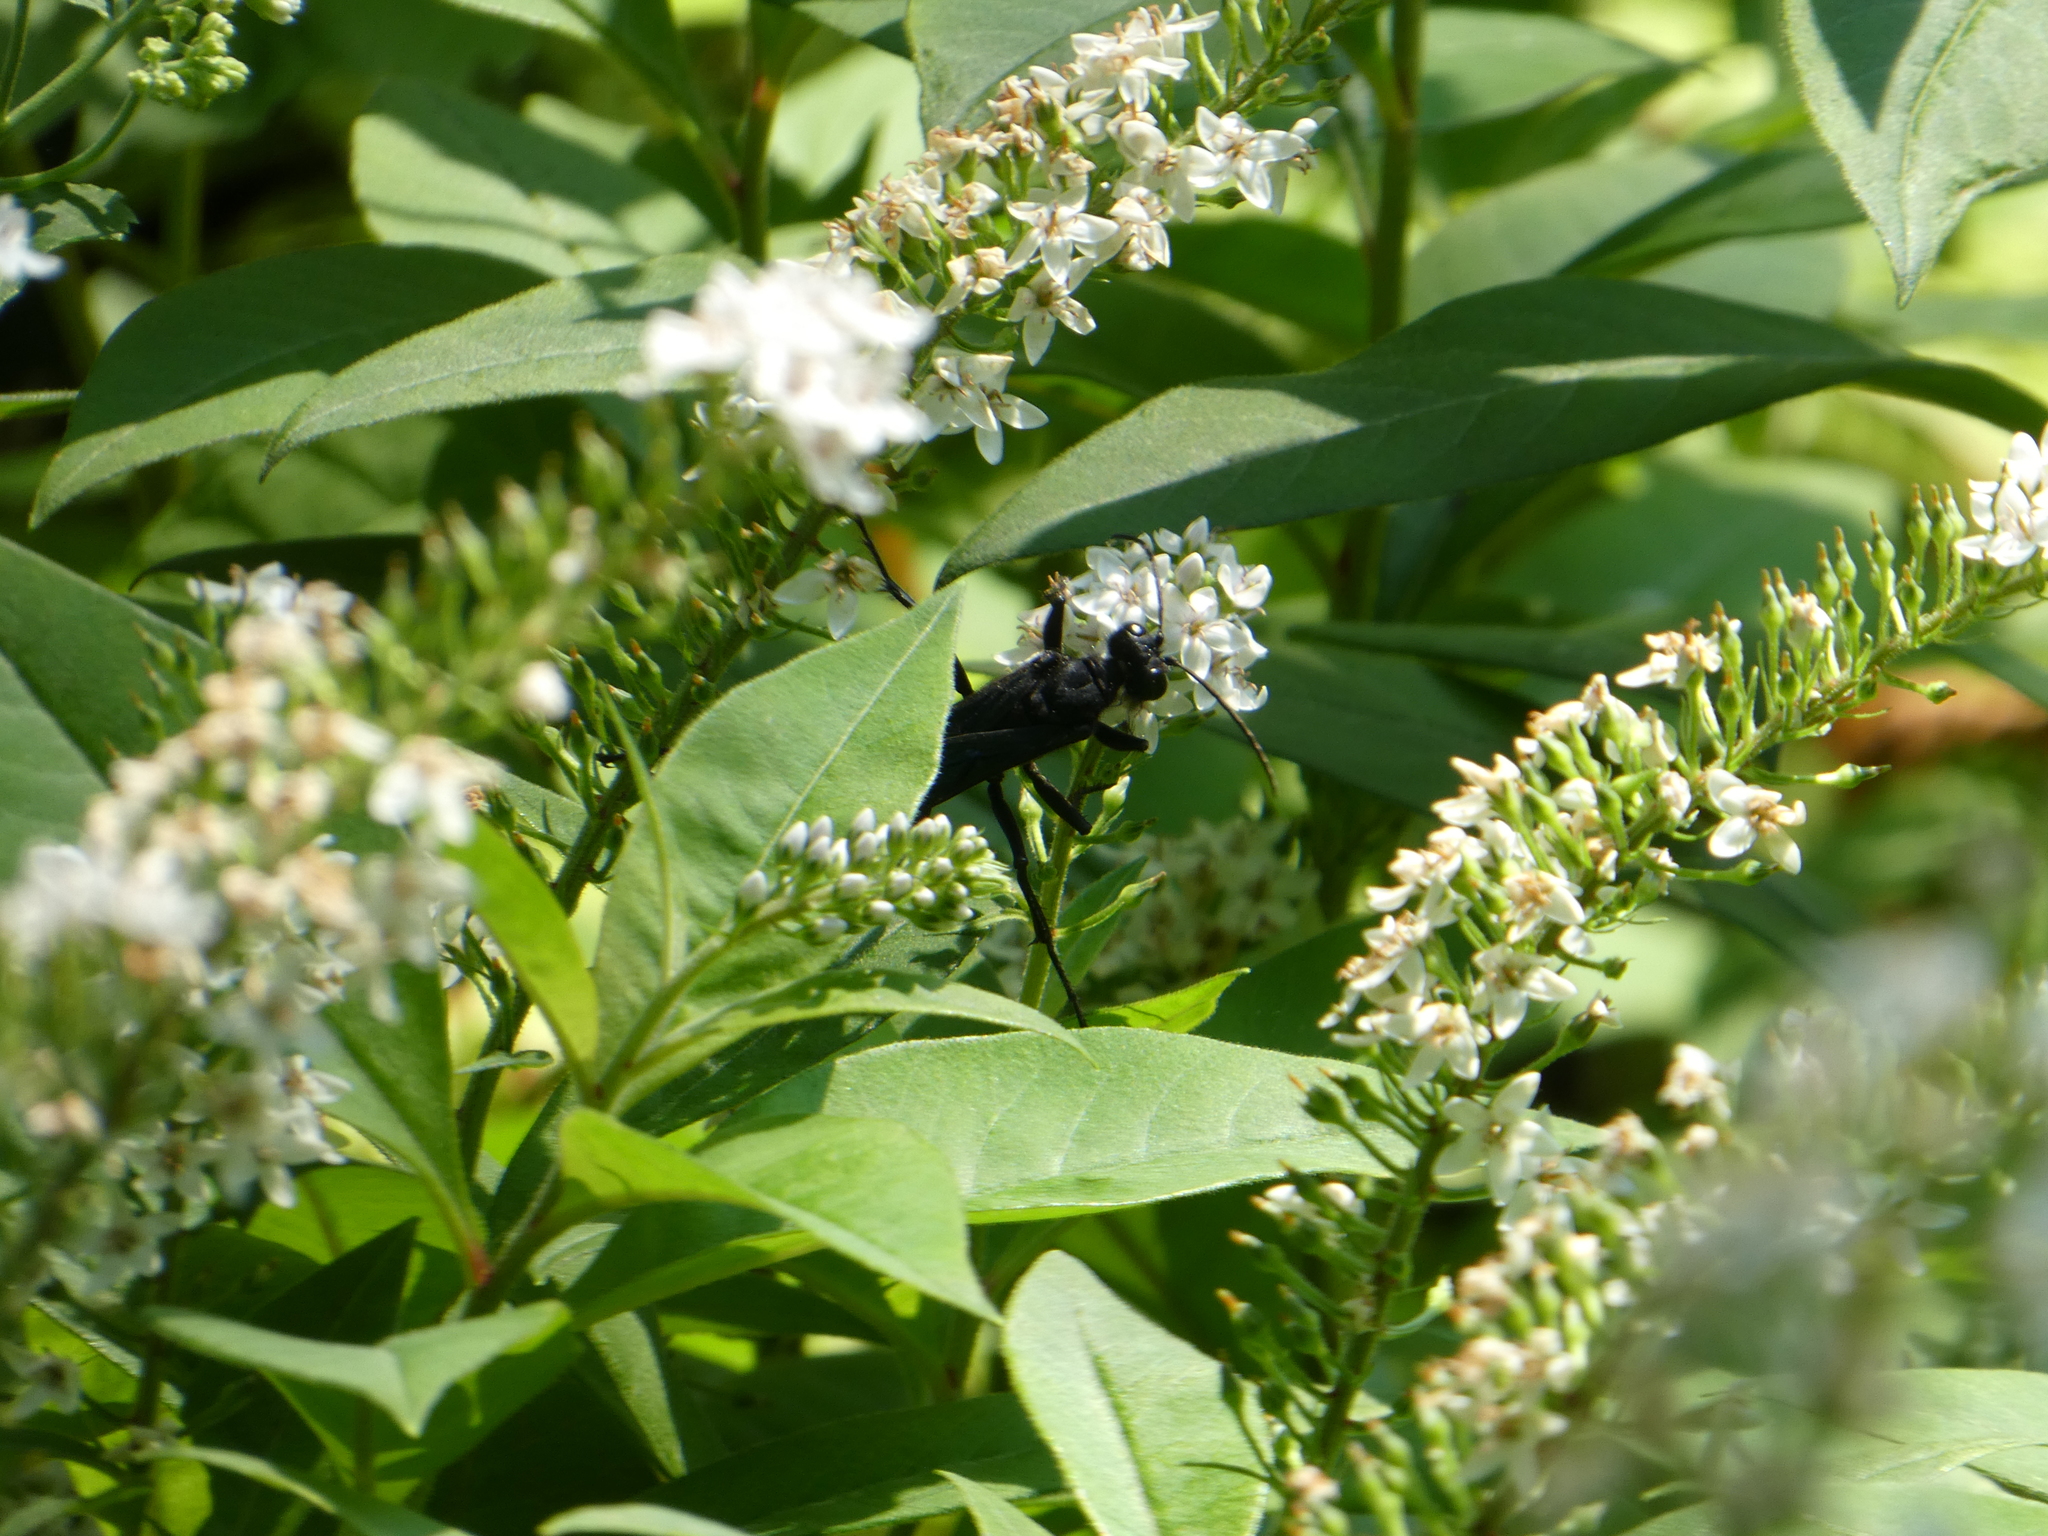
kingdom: Animalia
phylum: Arthropoda
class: Insecta
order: Hymenoptera
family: Sphecidae
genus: Sphex
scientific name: Sphex pensylvanicus
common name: Great black digger wasp
